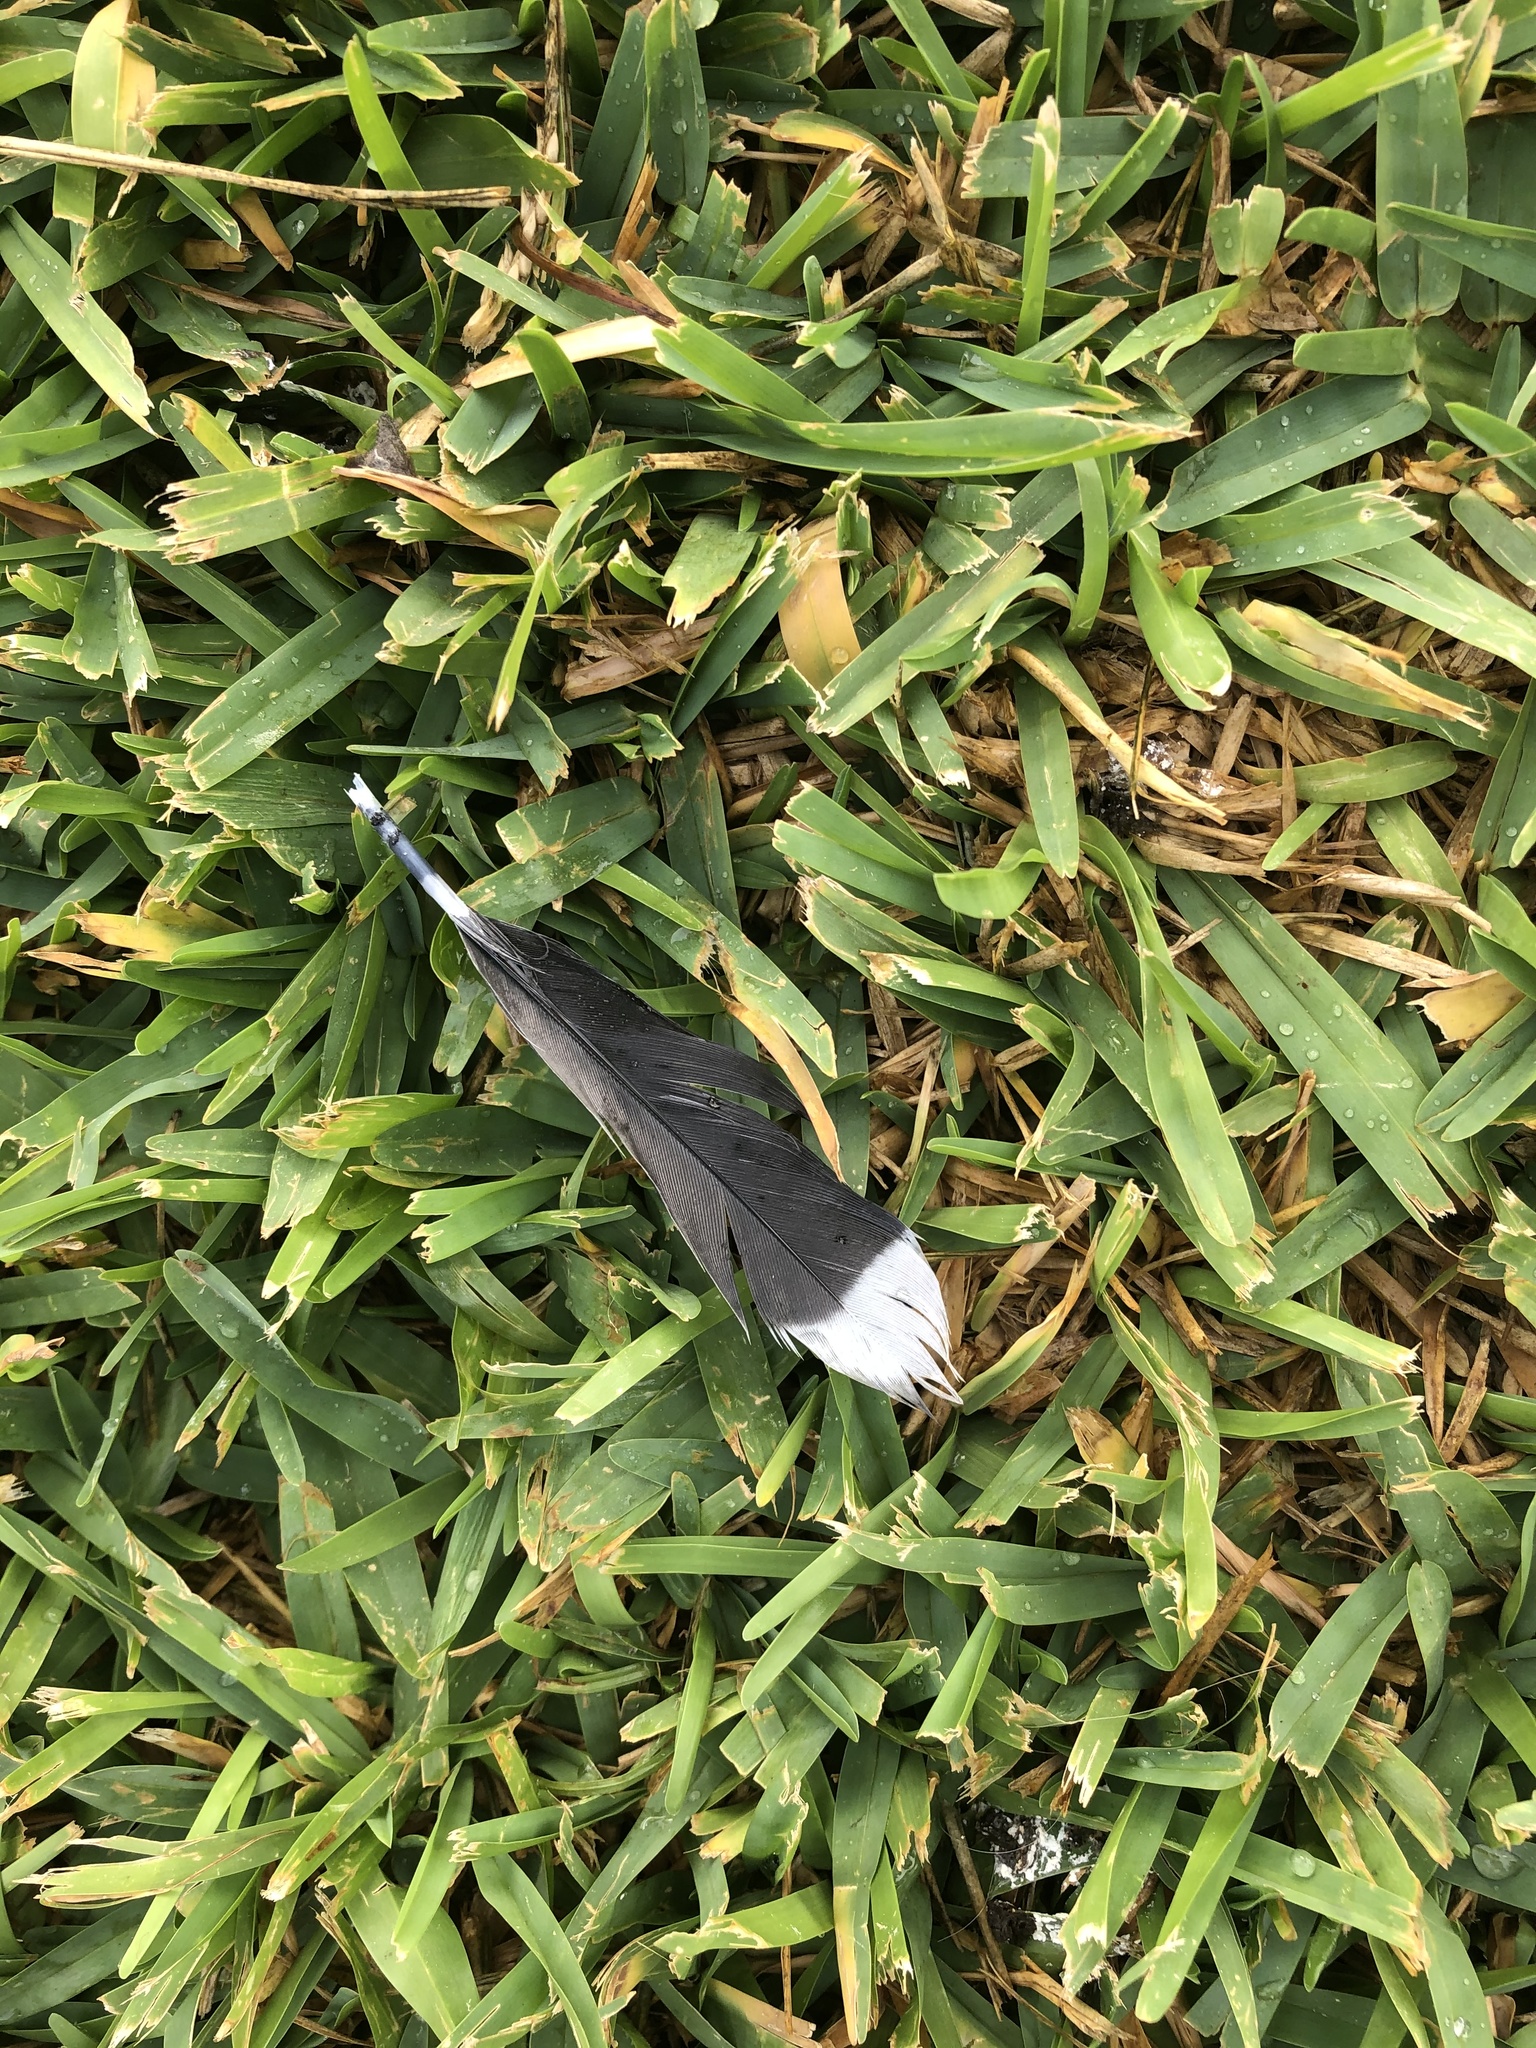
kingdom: Animalia
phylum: Chordata
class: Aves
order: Columbiformes
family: Columbidae
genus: Zenaida
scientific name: Zenaida meloda
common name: West peruvian dove
